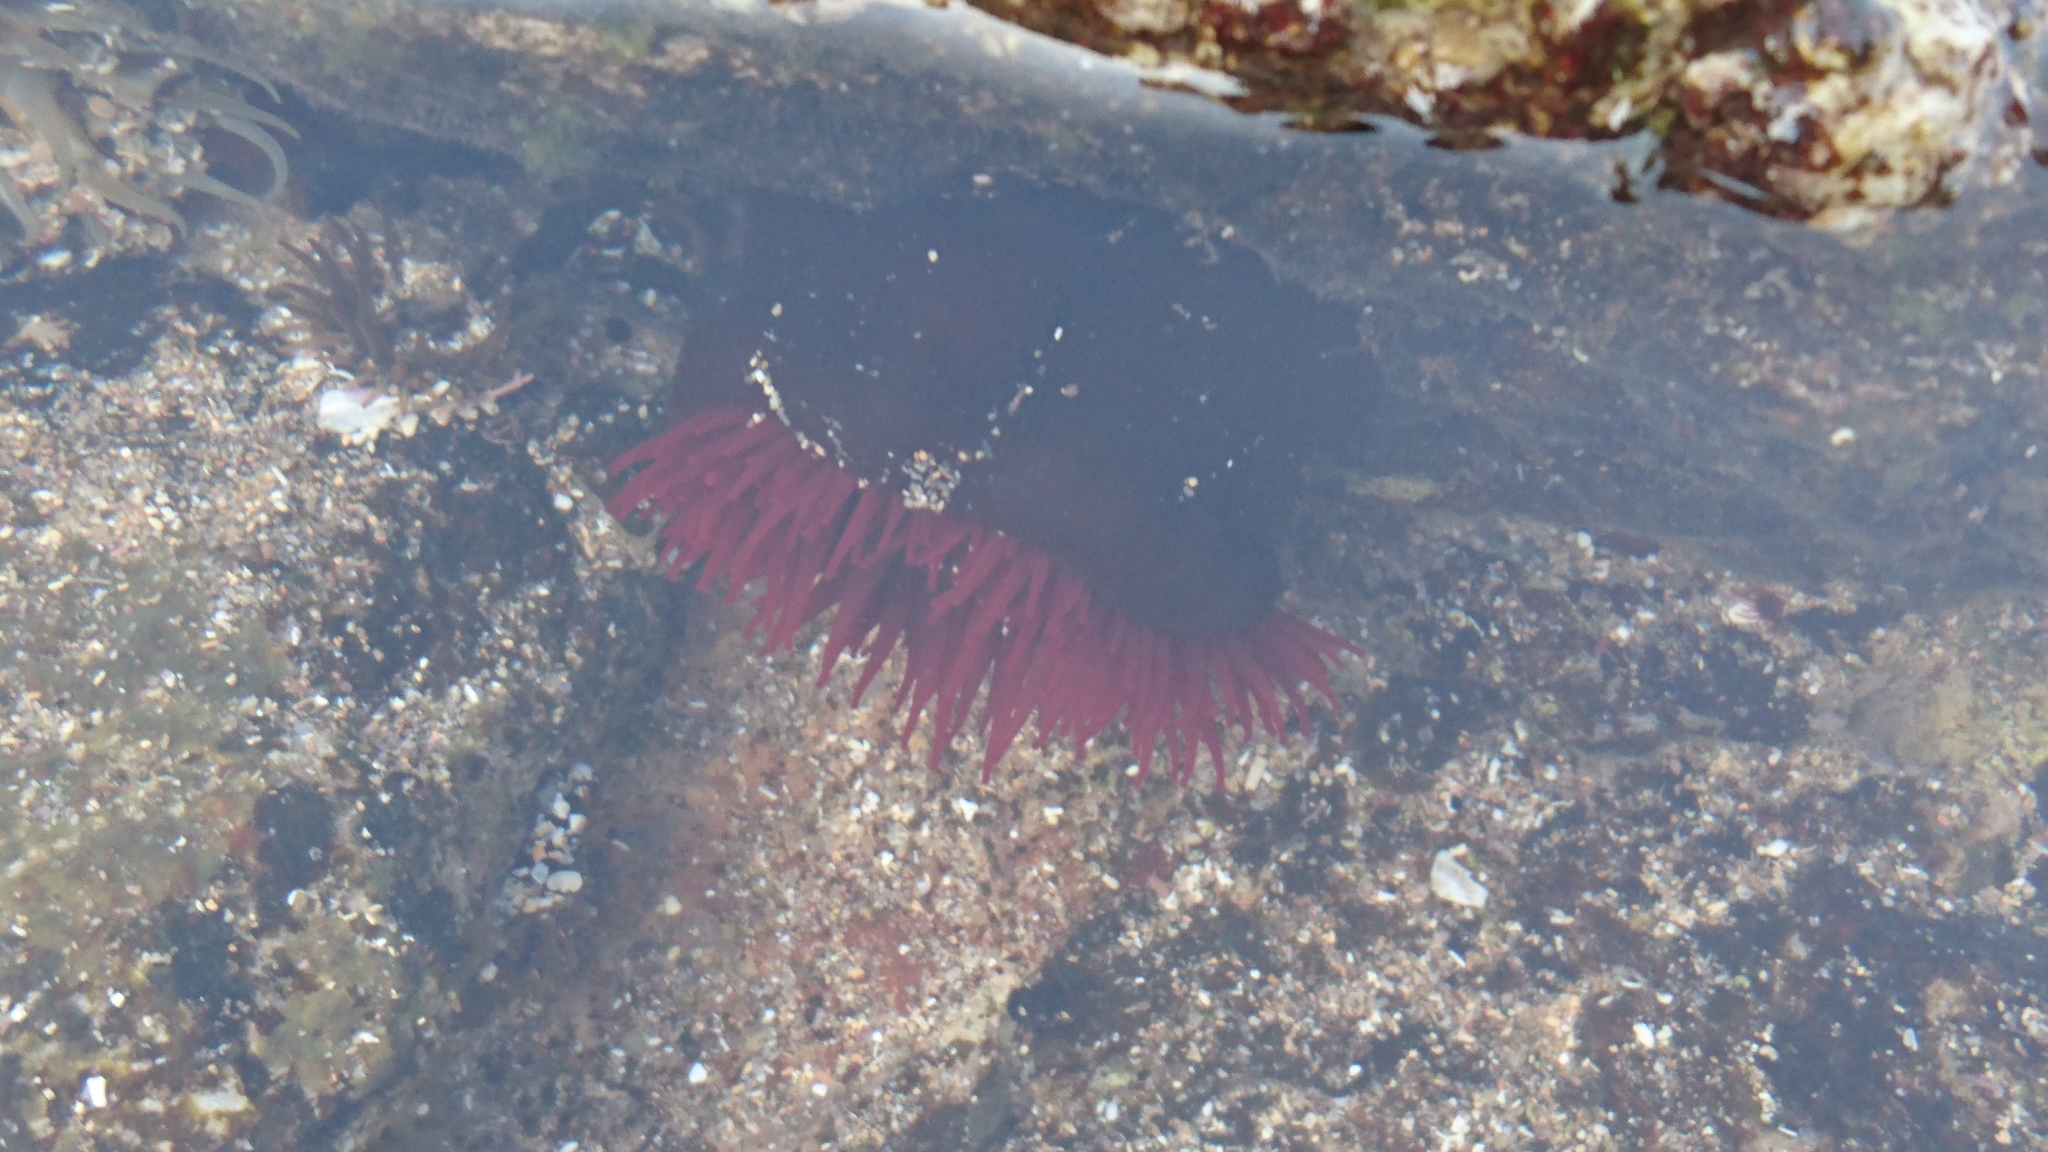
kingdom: Animalia
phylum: Cnidaria
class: Anthozoa
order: Actiniaria
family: Actiniidae
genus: Actinia
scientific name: Actinia tenebrosa
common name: Waratah anemone
